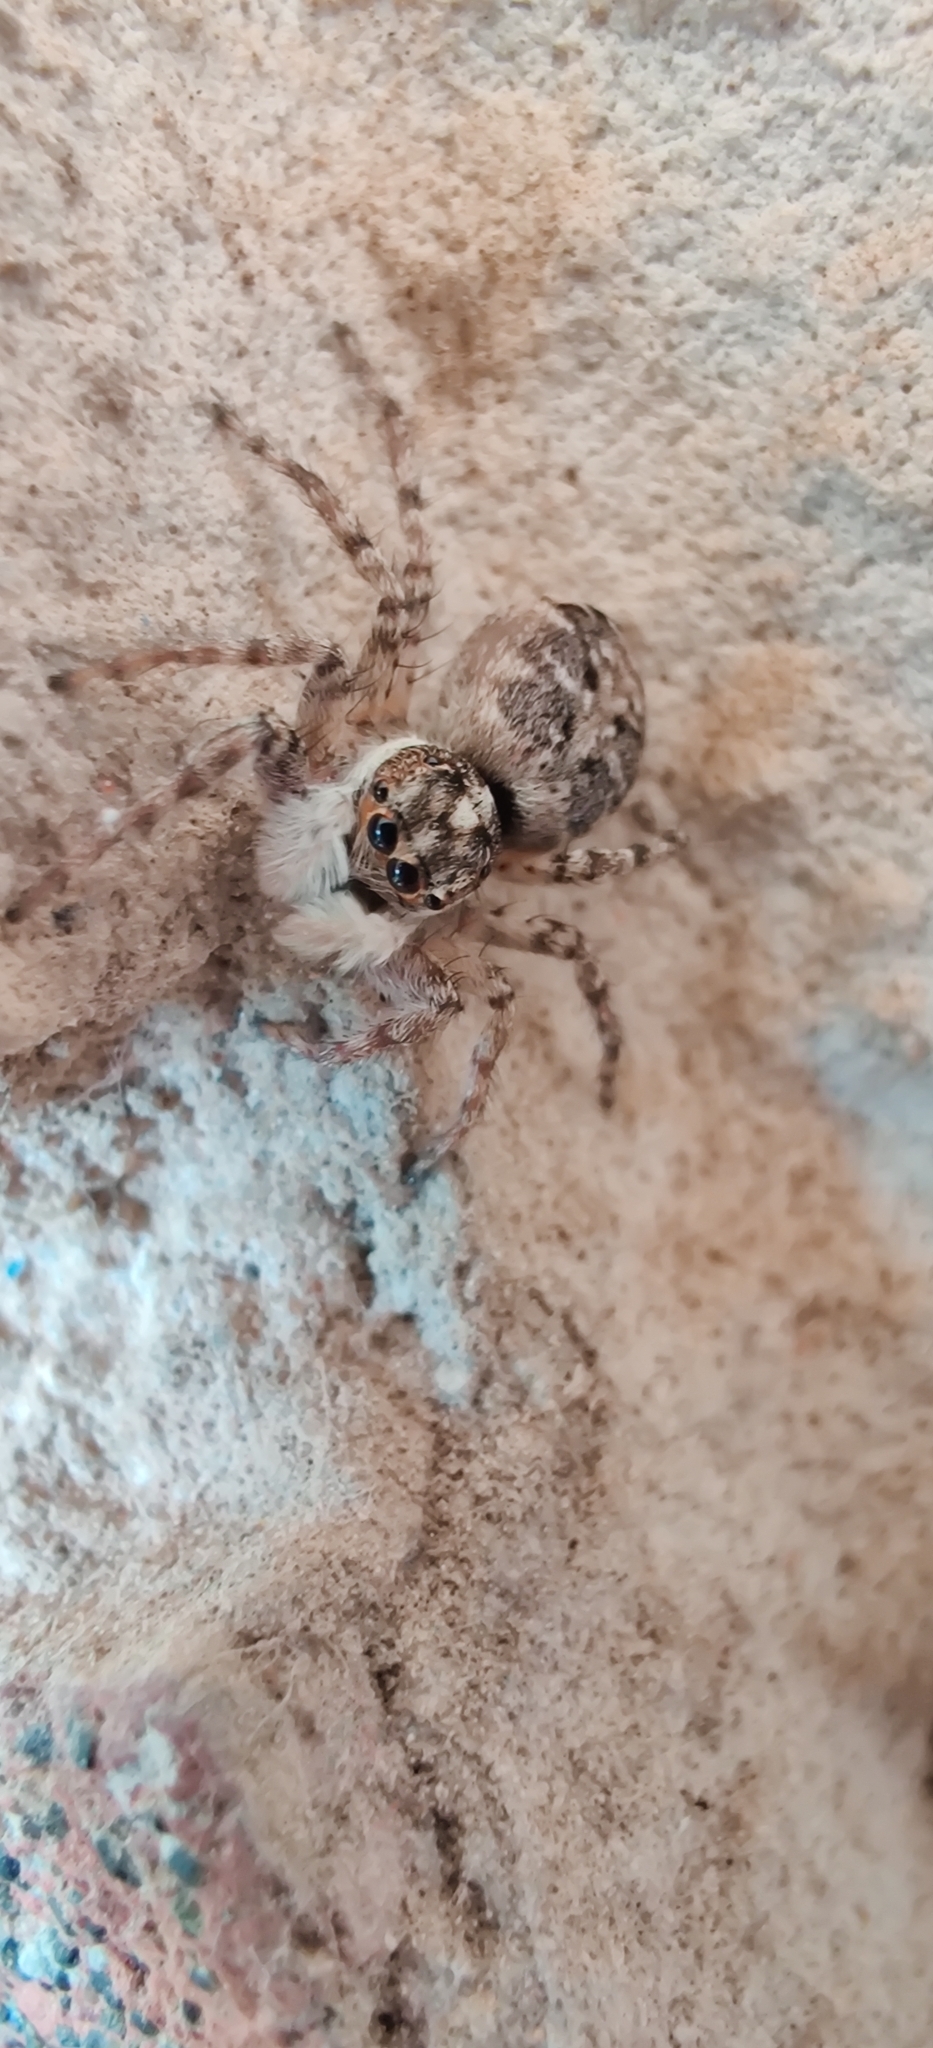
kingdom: Animalia
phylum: Arthropoda
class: Arachnida
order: Araneae
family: Salticidae
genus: Menemerus
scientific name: Menemerus semilimbatus
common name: Jumping spider
